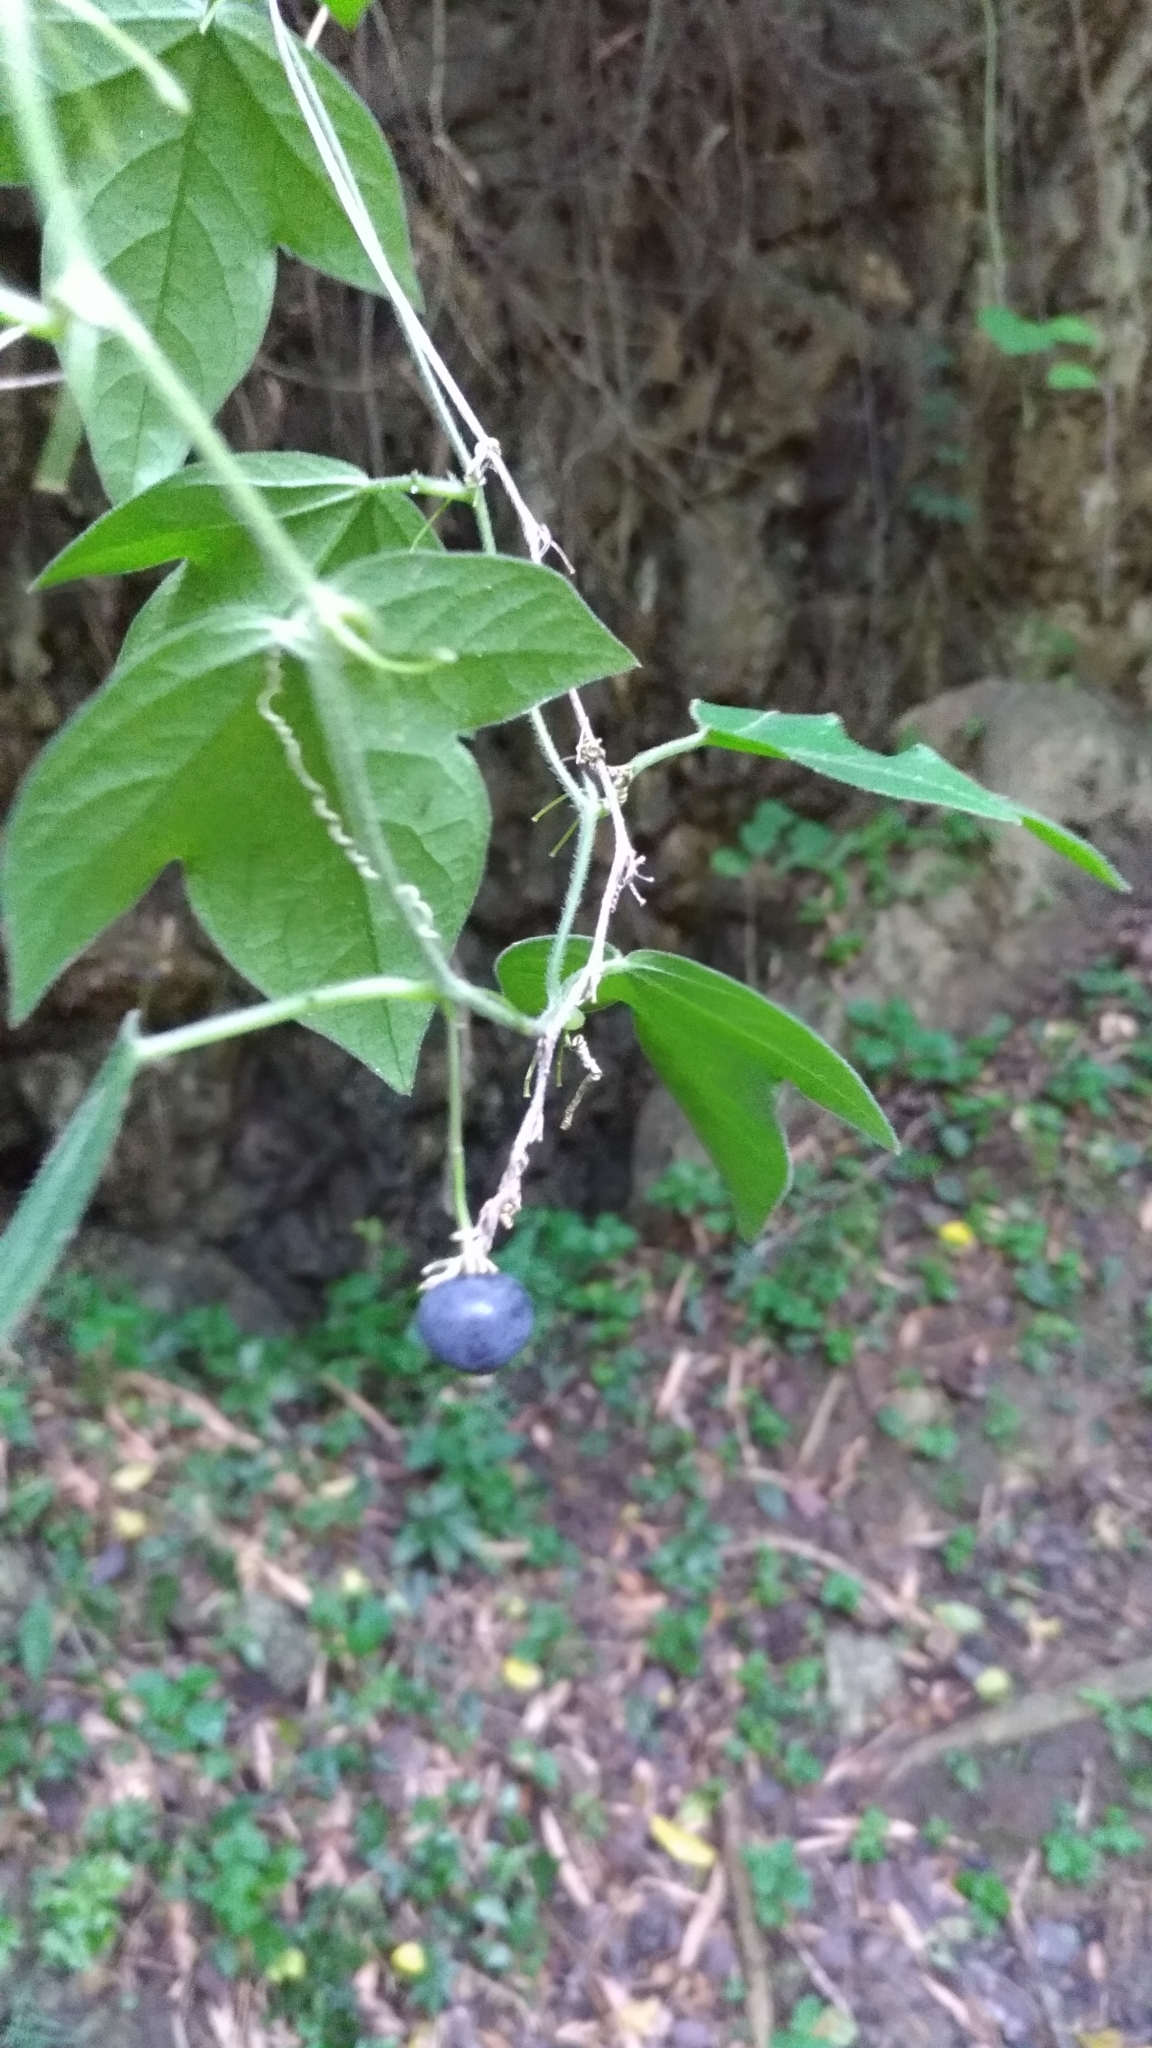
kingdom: Plantae
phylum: Tracheophyta
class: Magnoliopsida
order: Malpighiales
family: Passifloraceae
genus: Passiflora
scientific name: Passiflora suberosa
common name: Wild passionfruit
